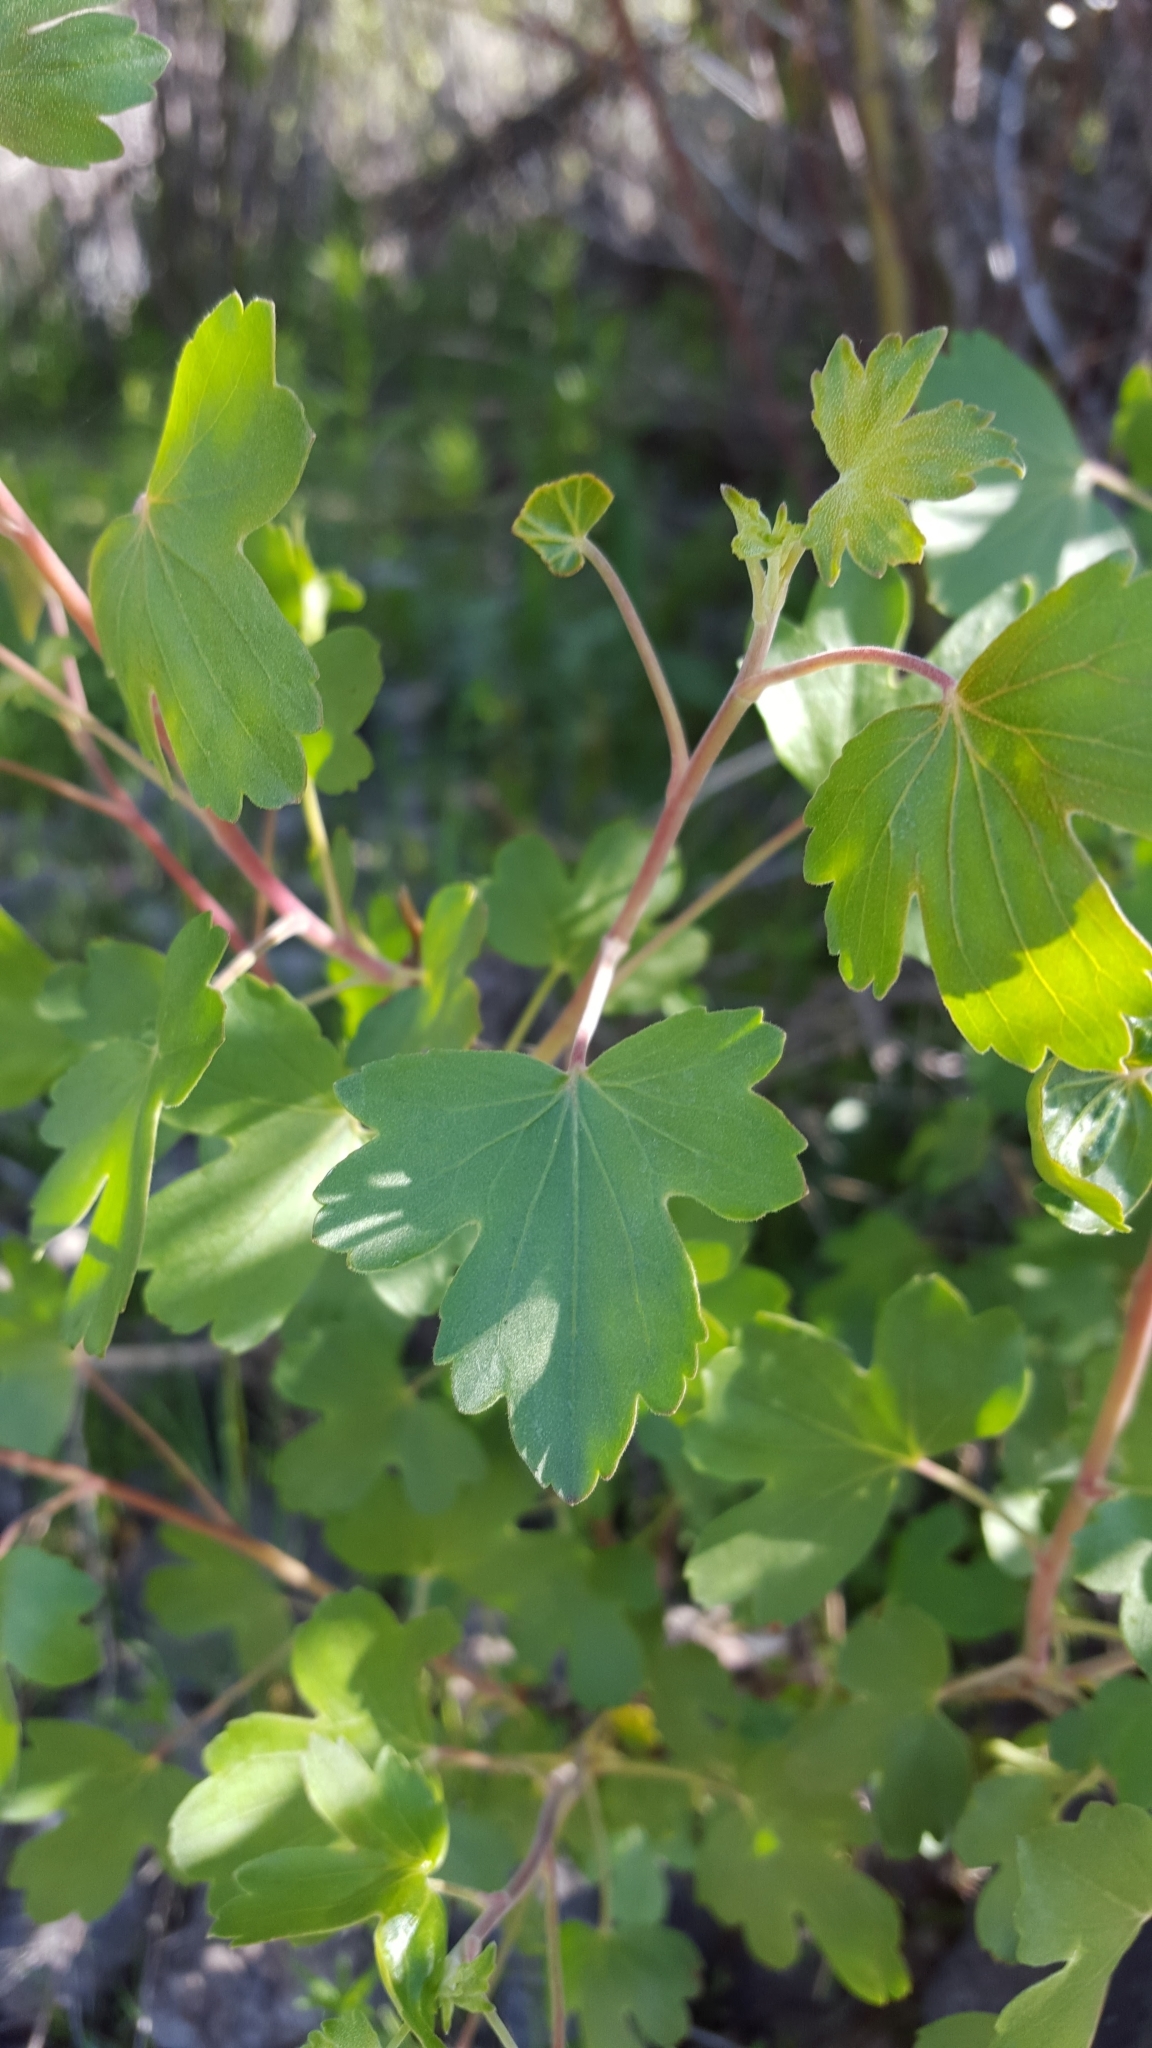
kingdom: Plantae
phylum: Tracheophyta
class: Magnoliopsida
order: Saxifragales
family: Grossulariaceae
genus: Ribes
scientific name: Ribes aureum
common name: Golden currant
